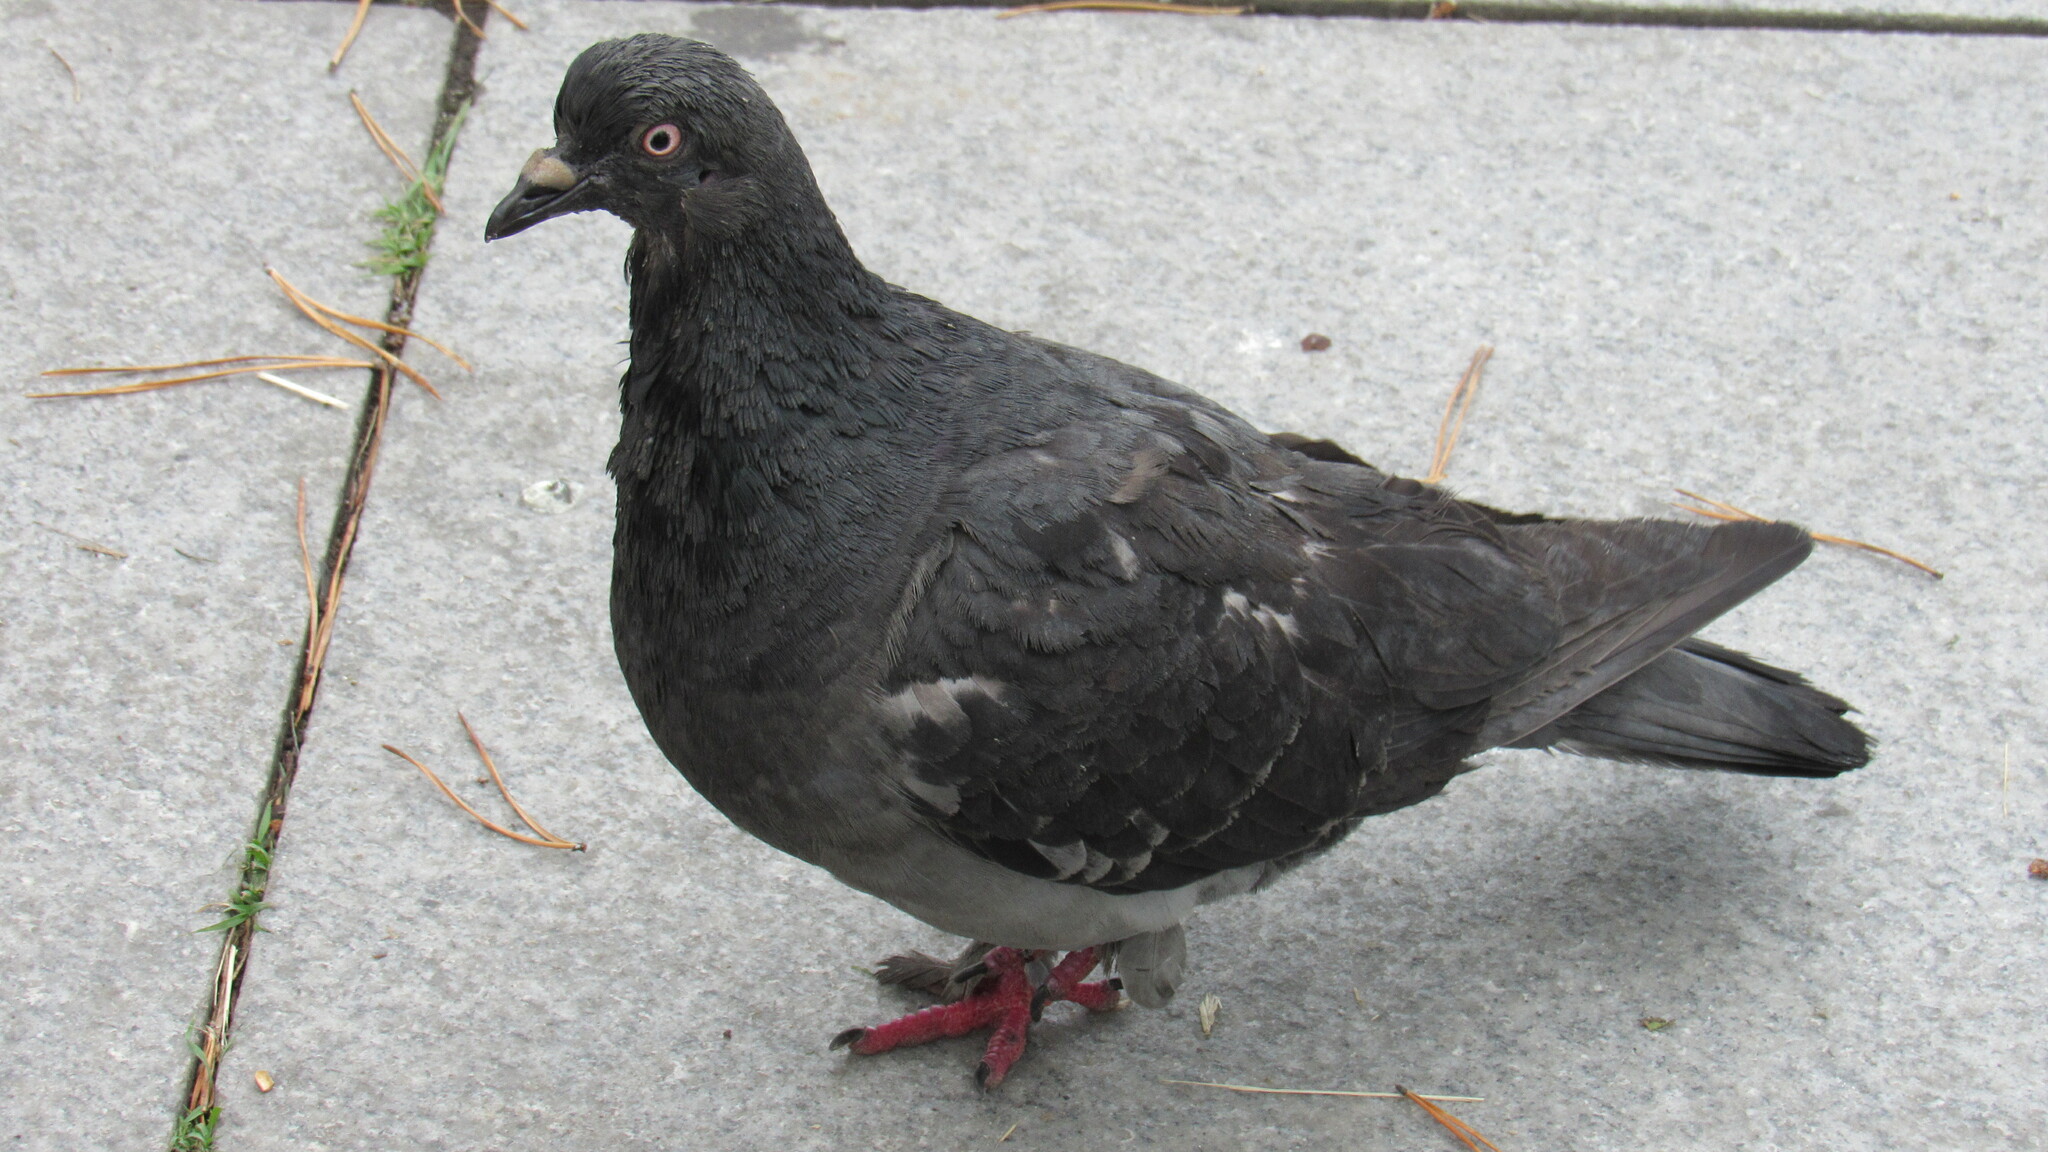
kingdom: Animalia
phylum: Chordata
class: Aves
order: Columbiformes
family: Columbidae
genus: Columba
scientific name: Columba livia
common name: Rock pigeon
